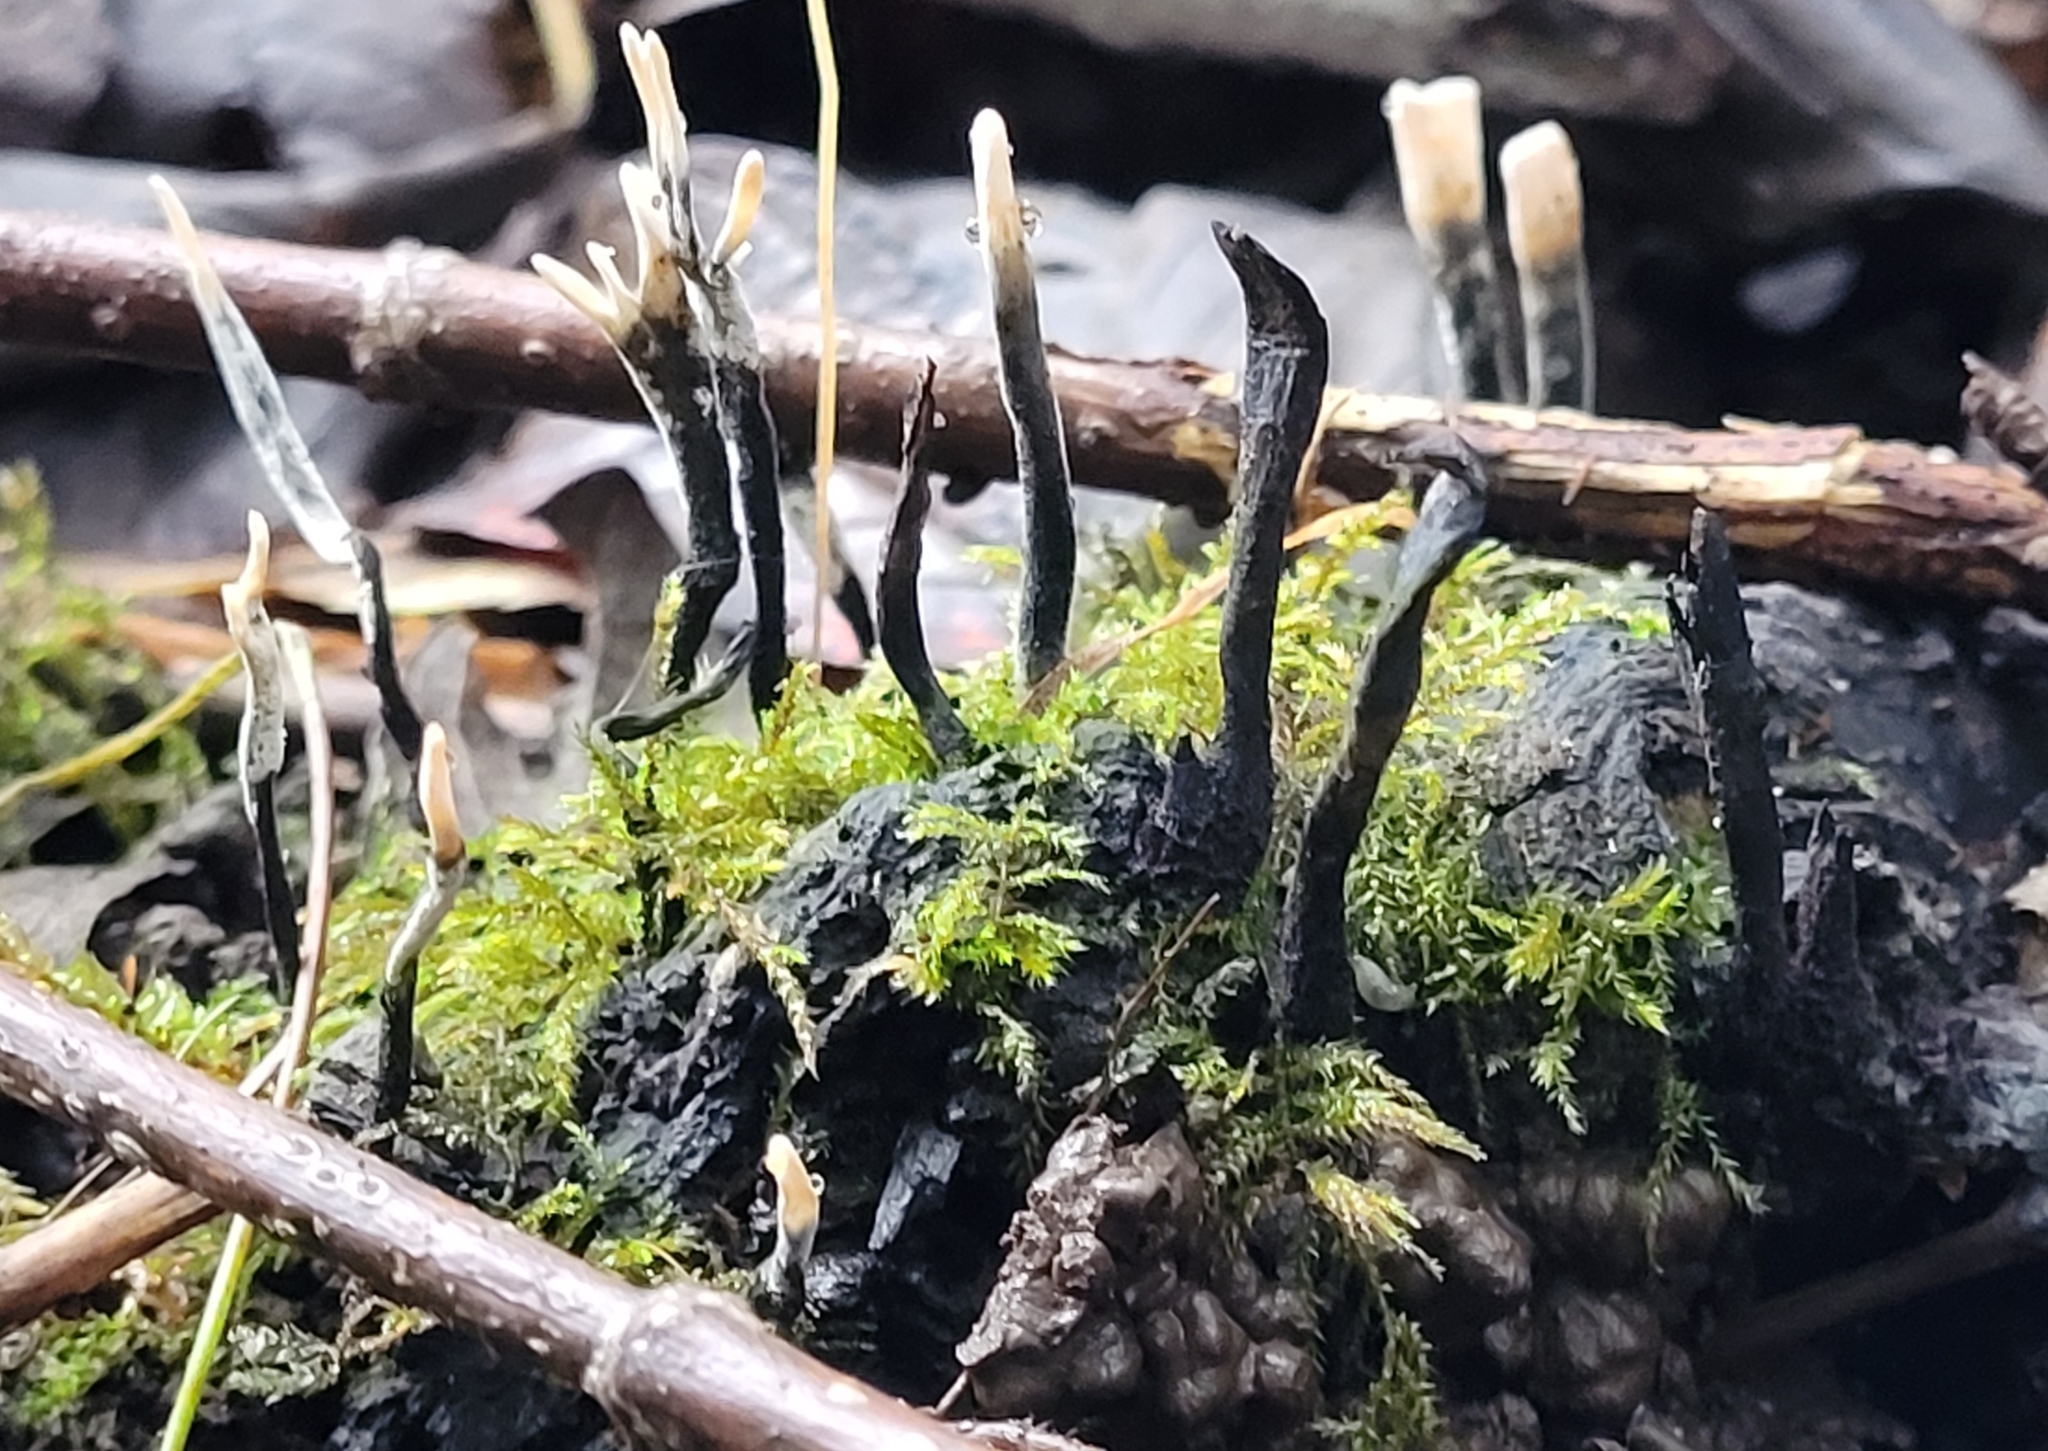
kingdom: Fungi
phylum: Ascomycota
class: Sordariomycetes
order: Xylariales
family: Xylariaceae
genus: Xylaria
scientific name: Xylaria hypoxylon
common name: Candle-snuff fungus
